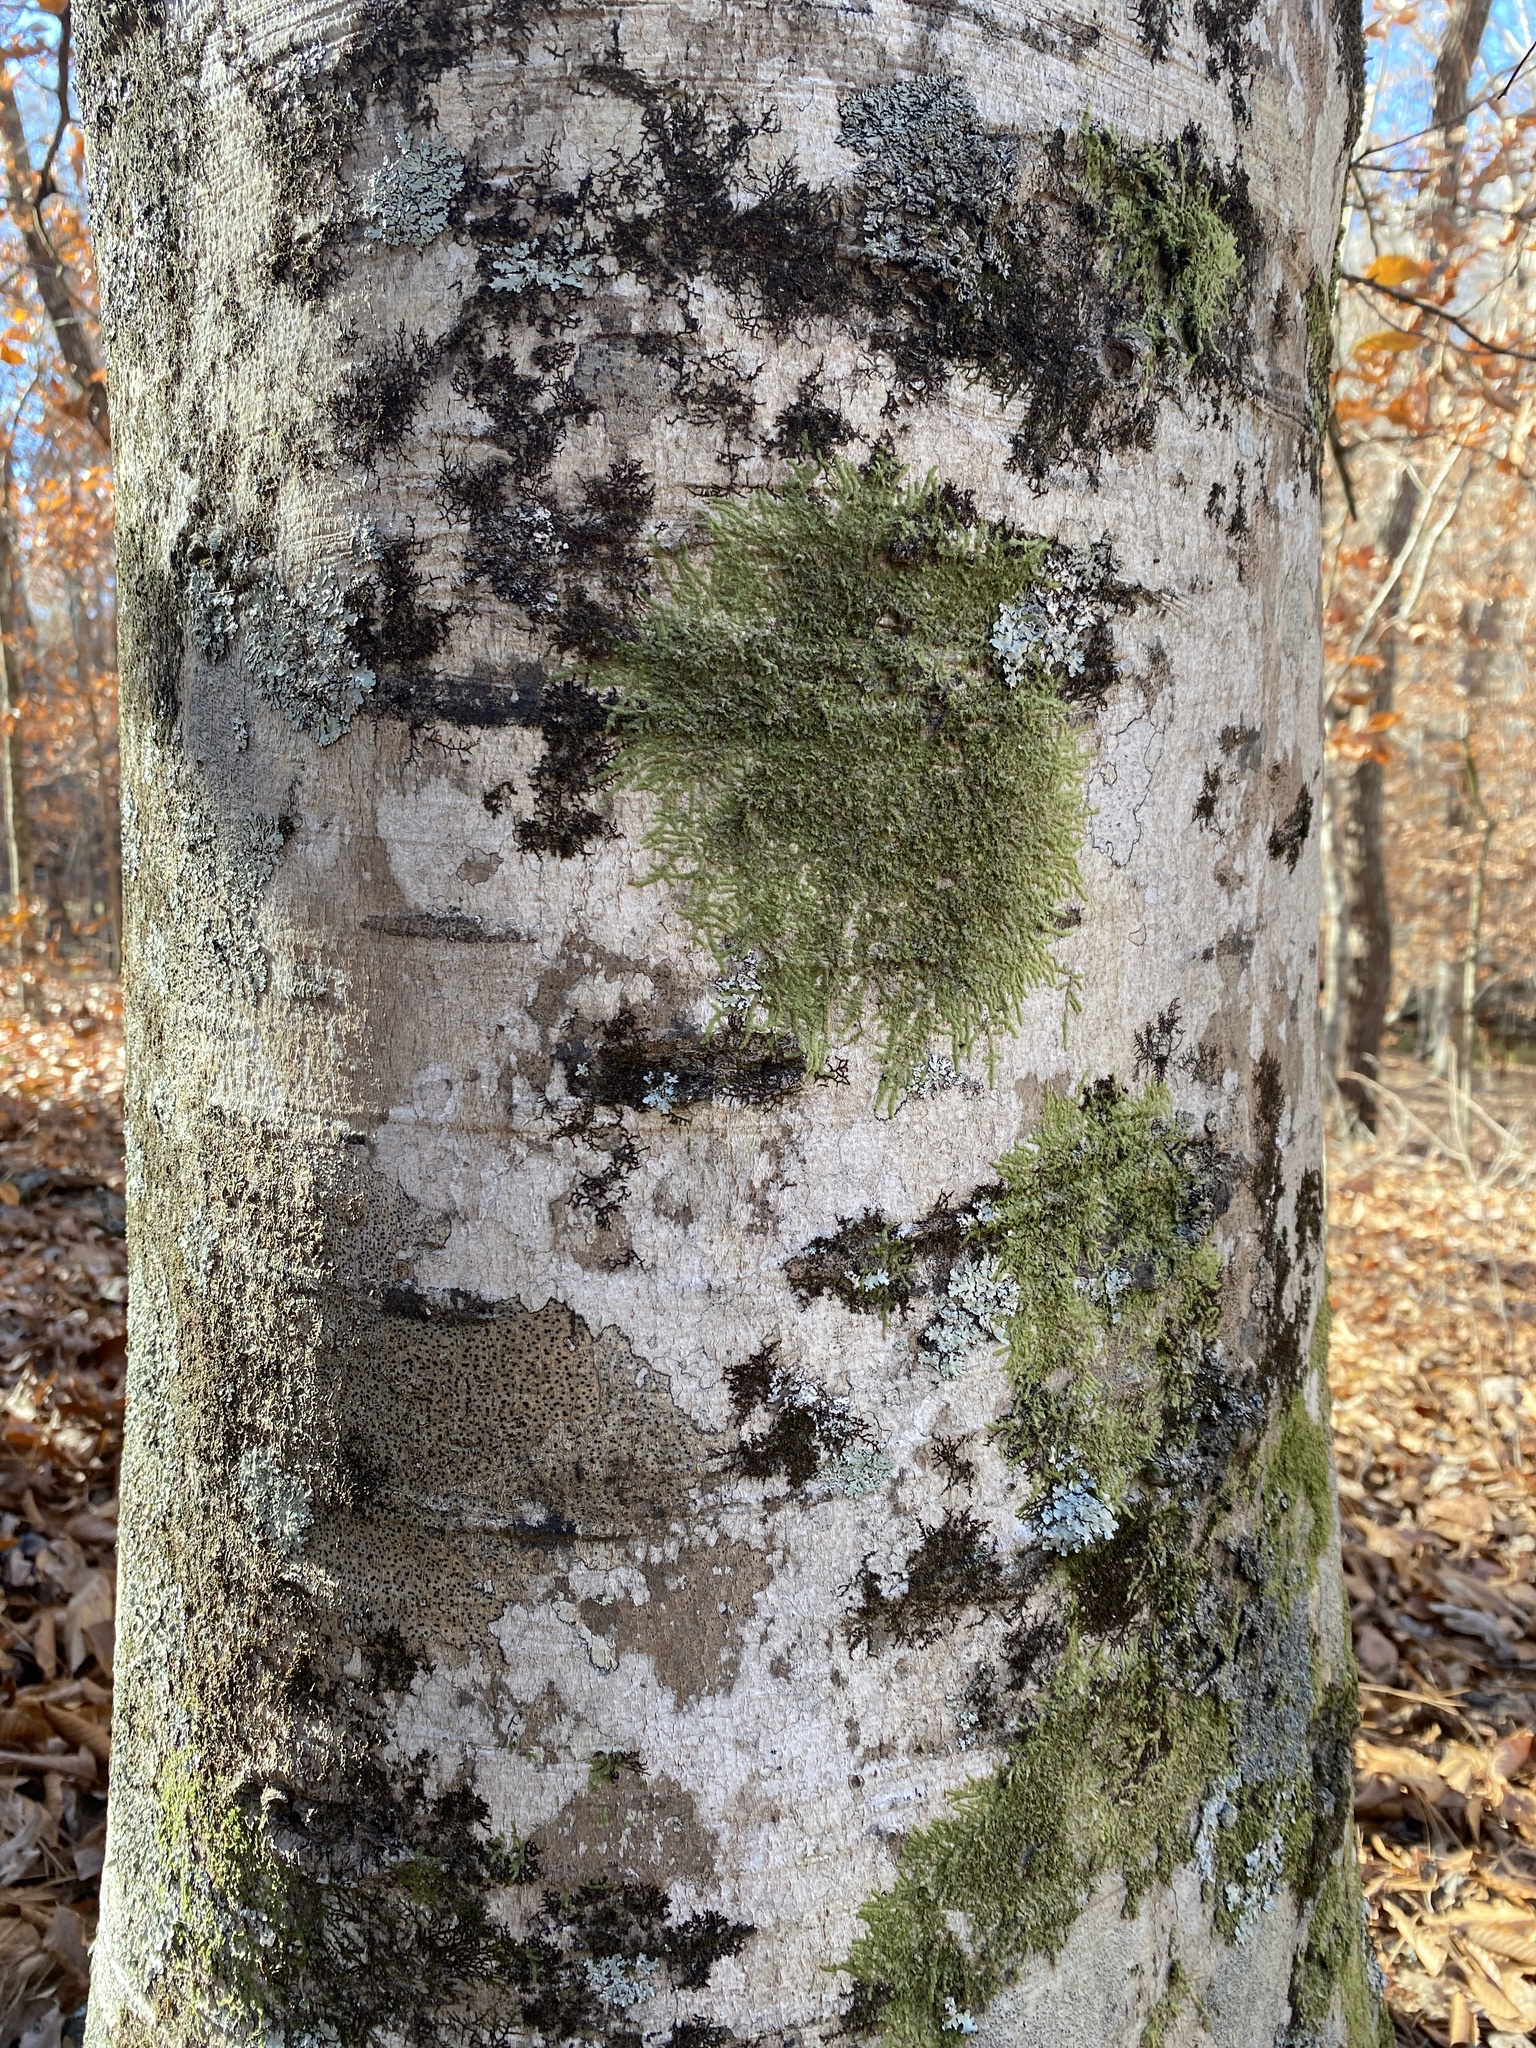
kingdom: Plantae
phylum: Tracheophyta
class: Magnoliopsida
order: Fagales
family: Fagaceae
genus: Fagus
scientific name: Fagus grandifolia
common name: American beech
